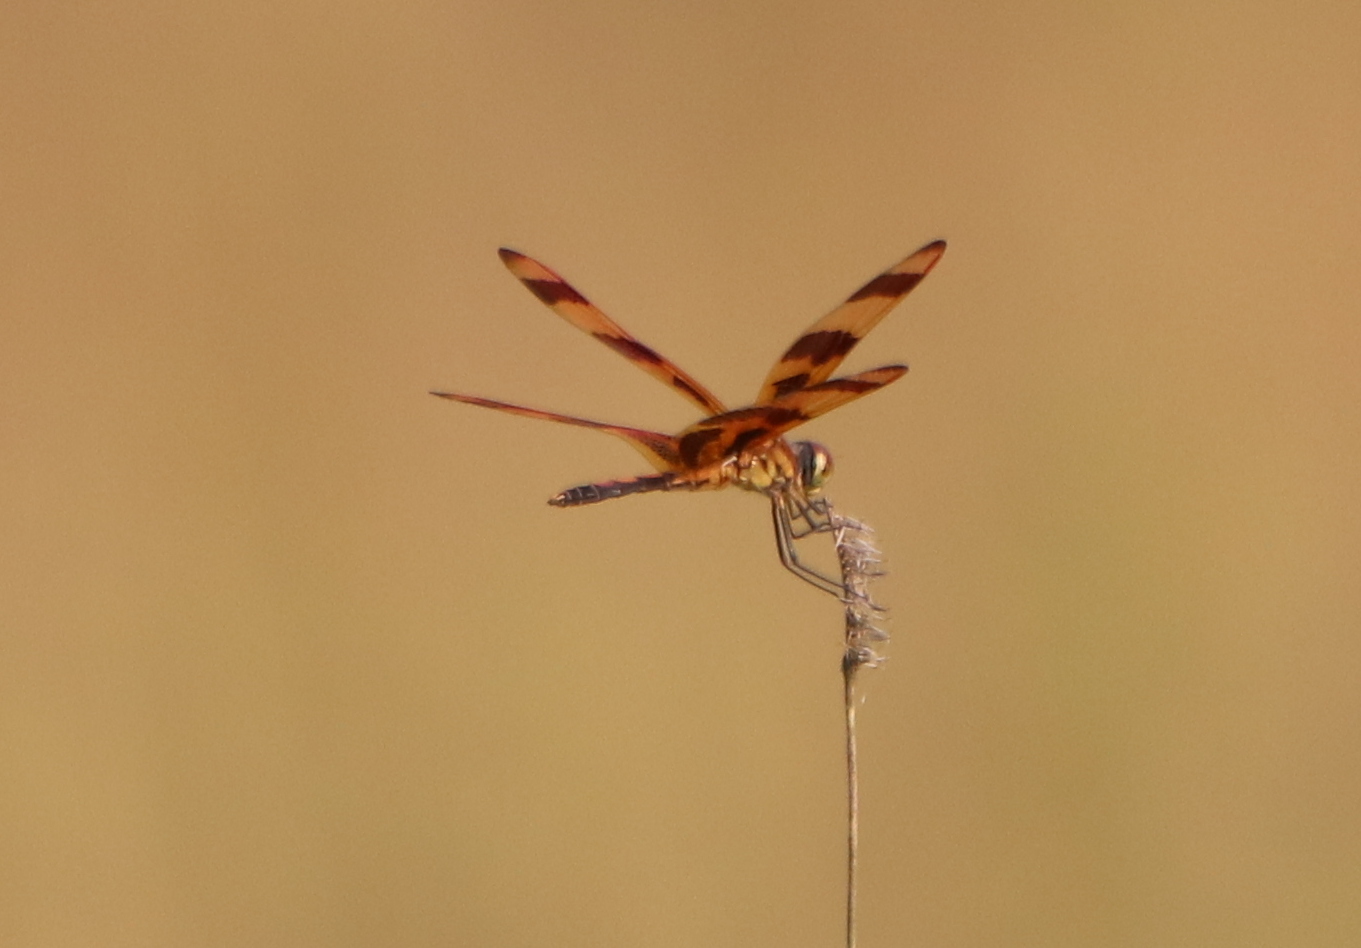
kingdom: Animalia
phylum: Arthropoda
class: Insecta
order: Odonata
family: Libellulidae
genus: Celithemis
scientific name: Celithemis eponina
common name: Halloween pennant
